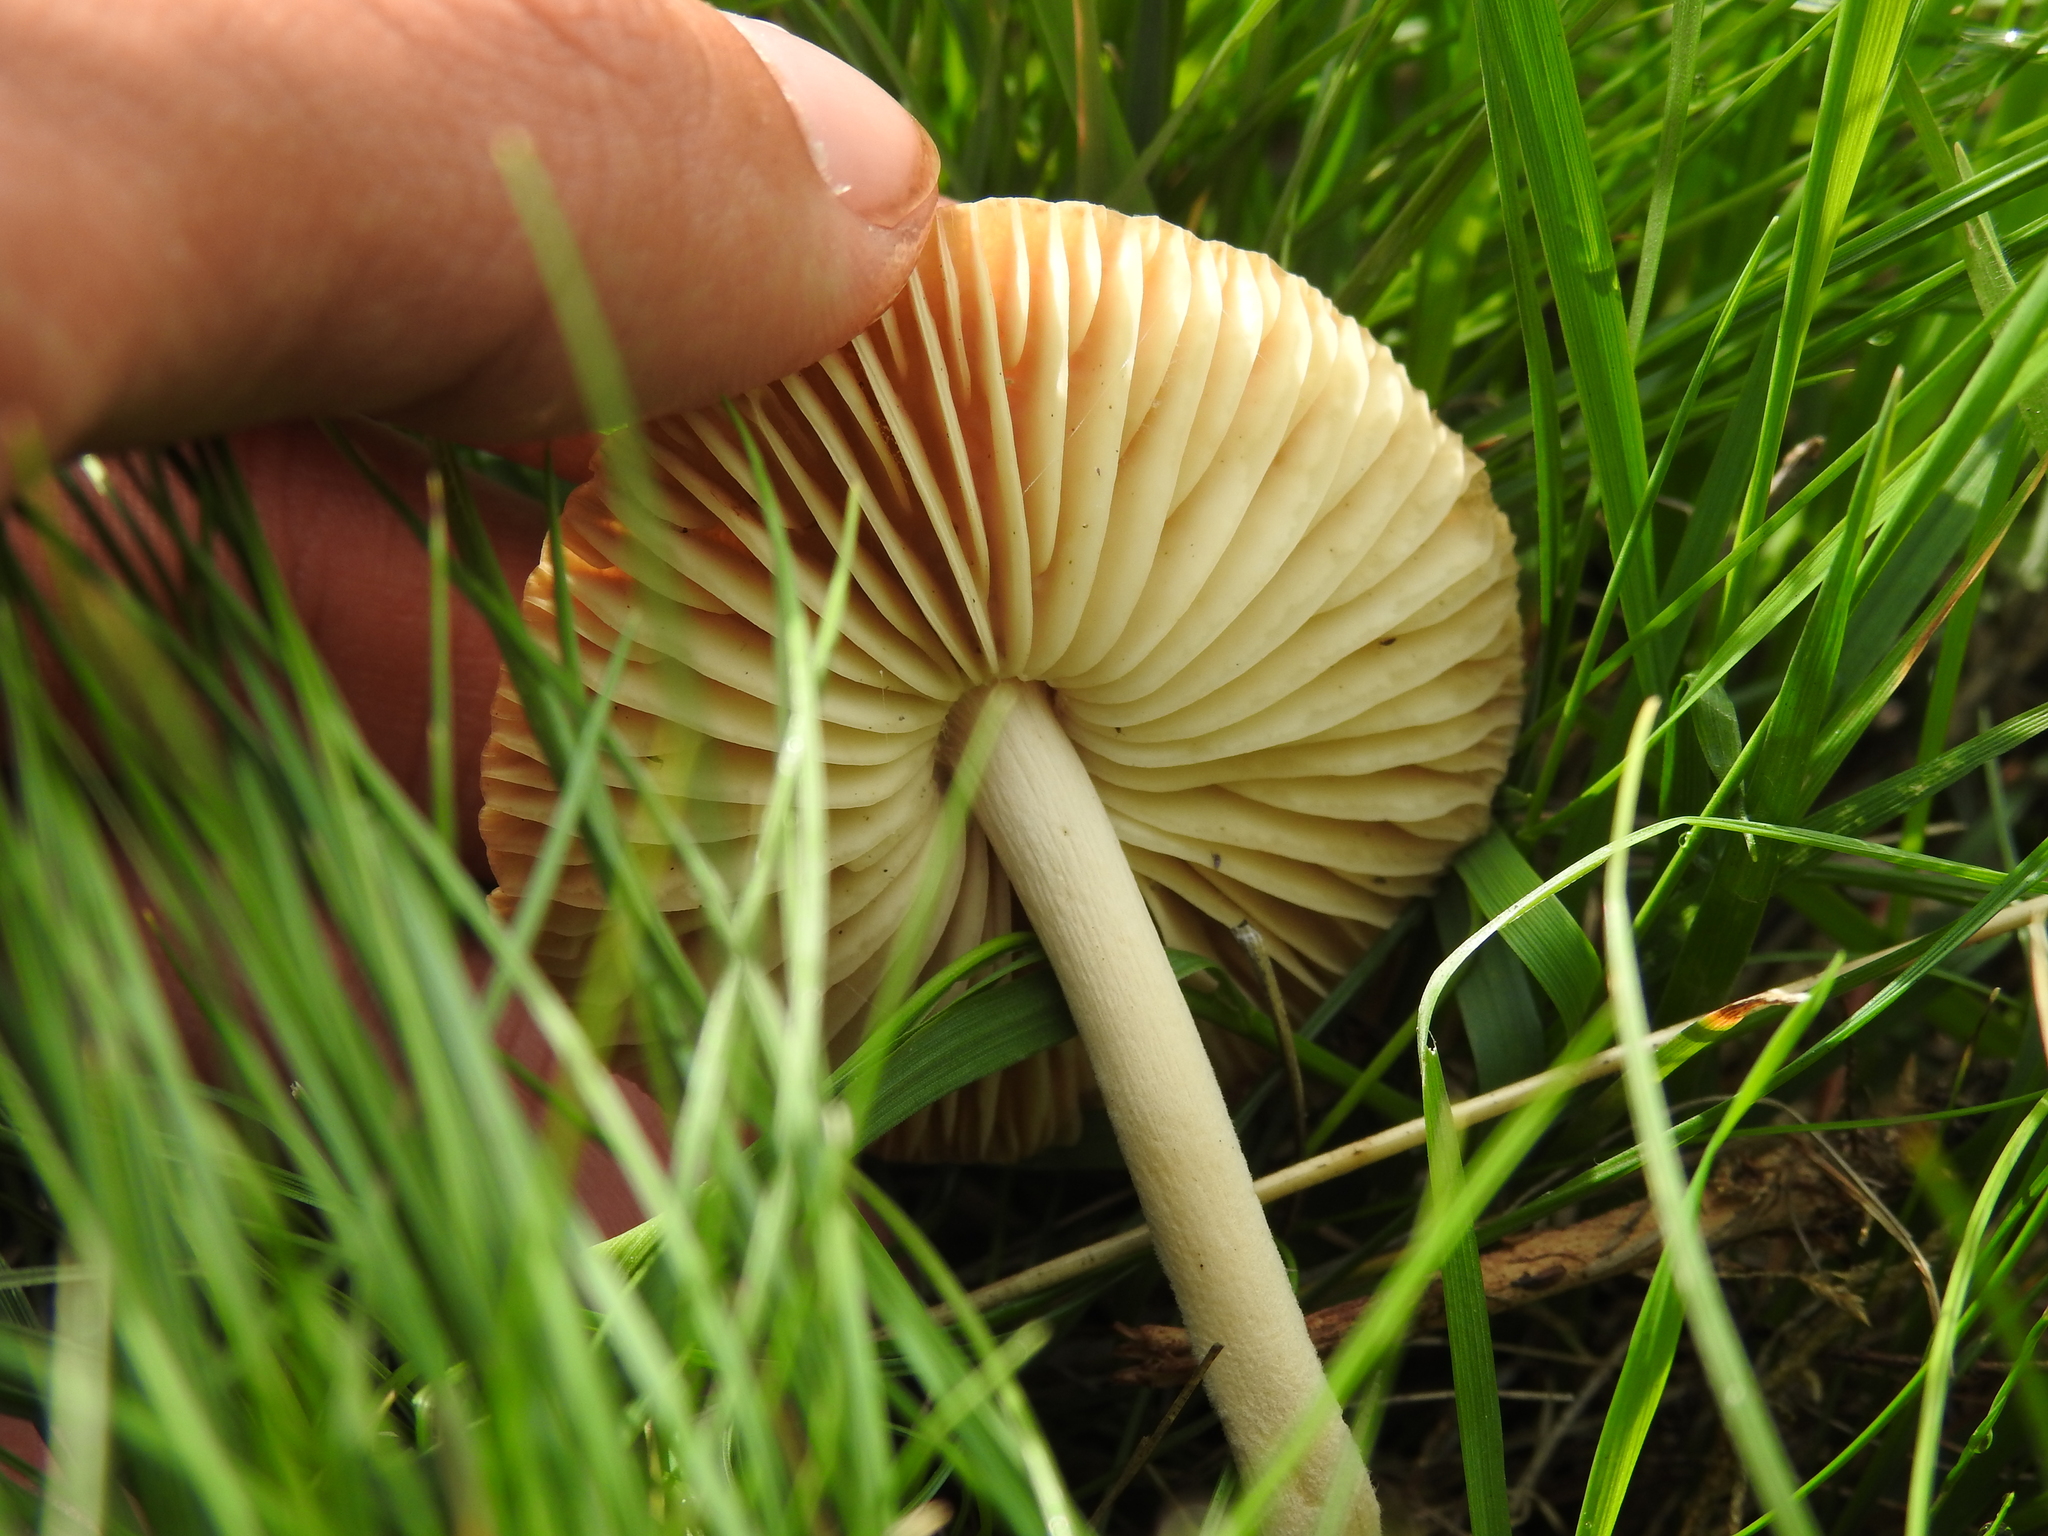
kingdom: Fungi
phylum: Basidiomycota
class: Agaricomycetes
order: Agaricales
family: Marasmiaceae
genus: Marasmius
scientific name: Marasmius oreades
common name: Fairy ring champignon
